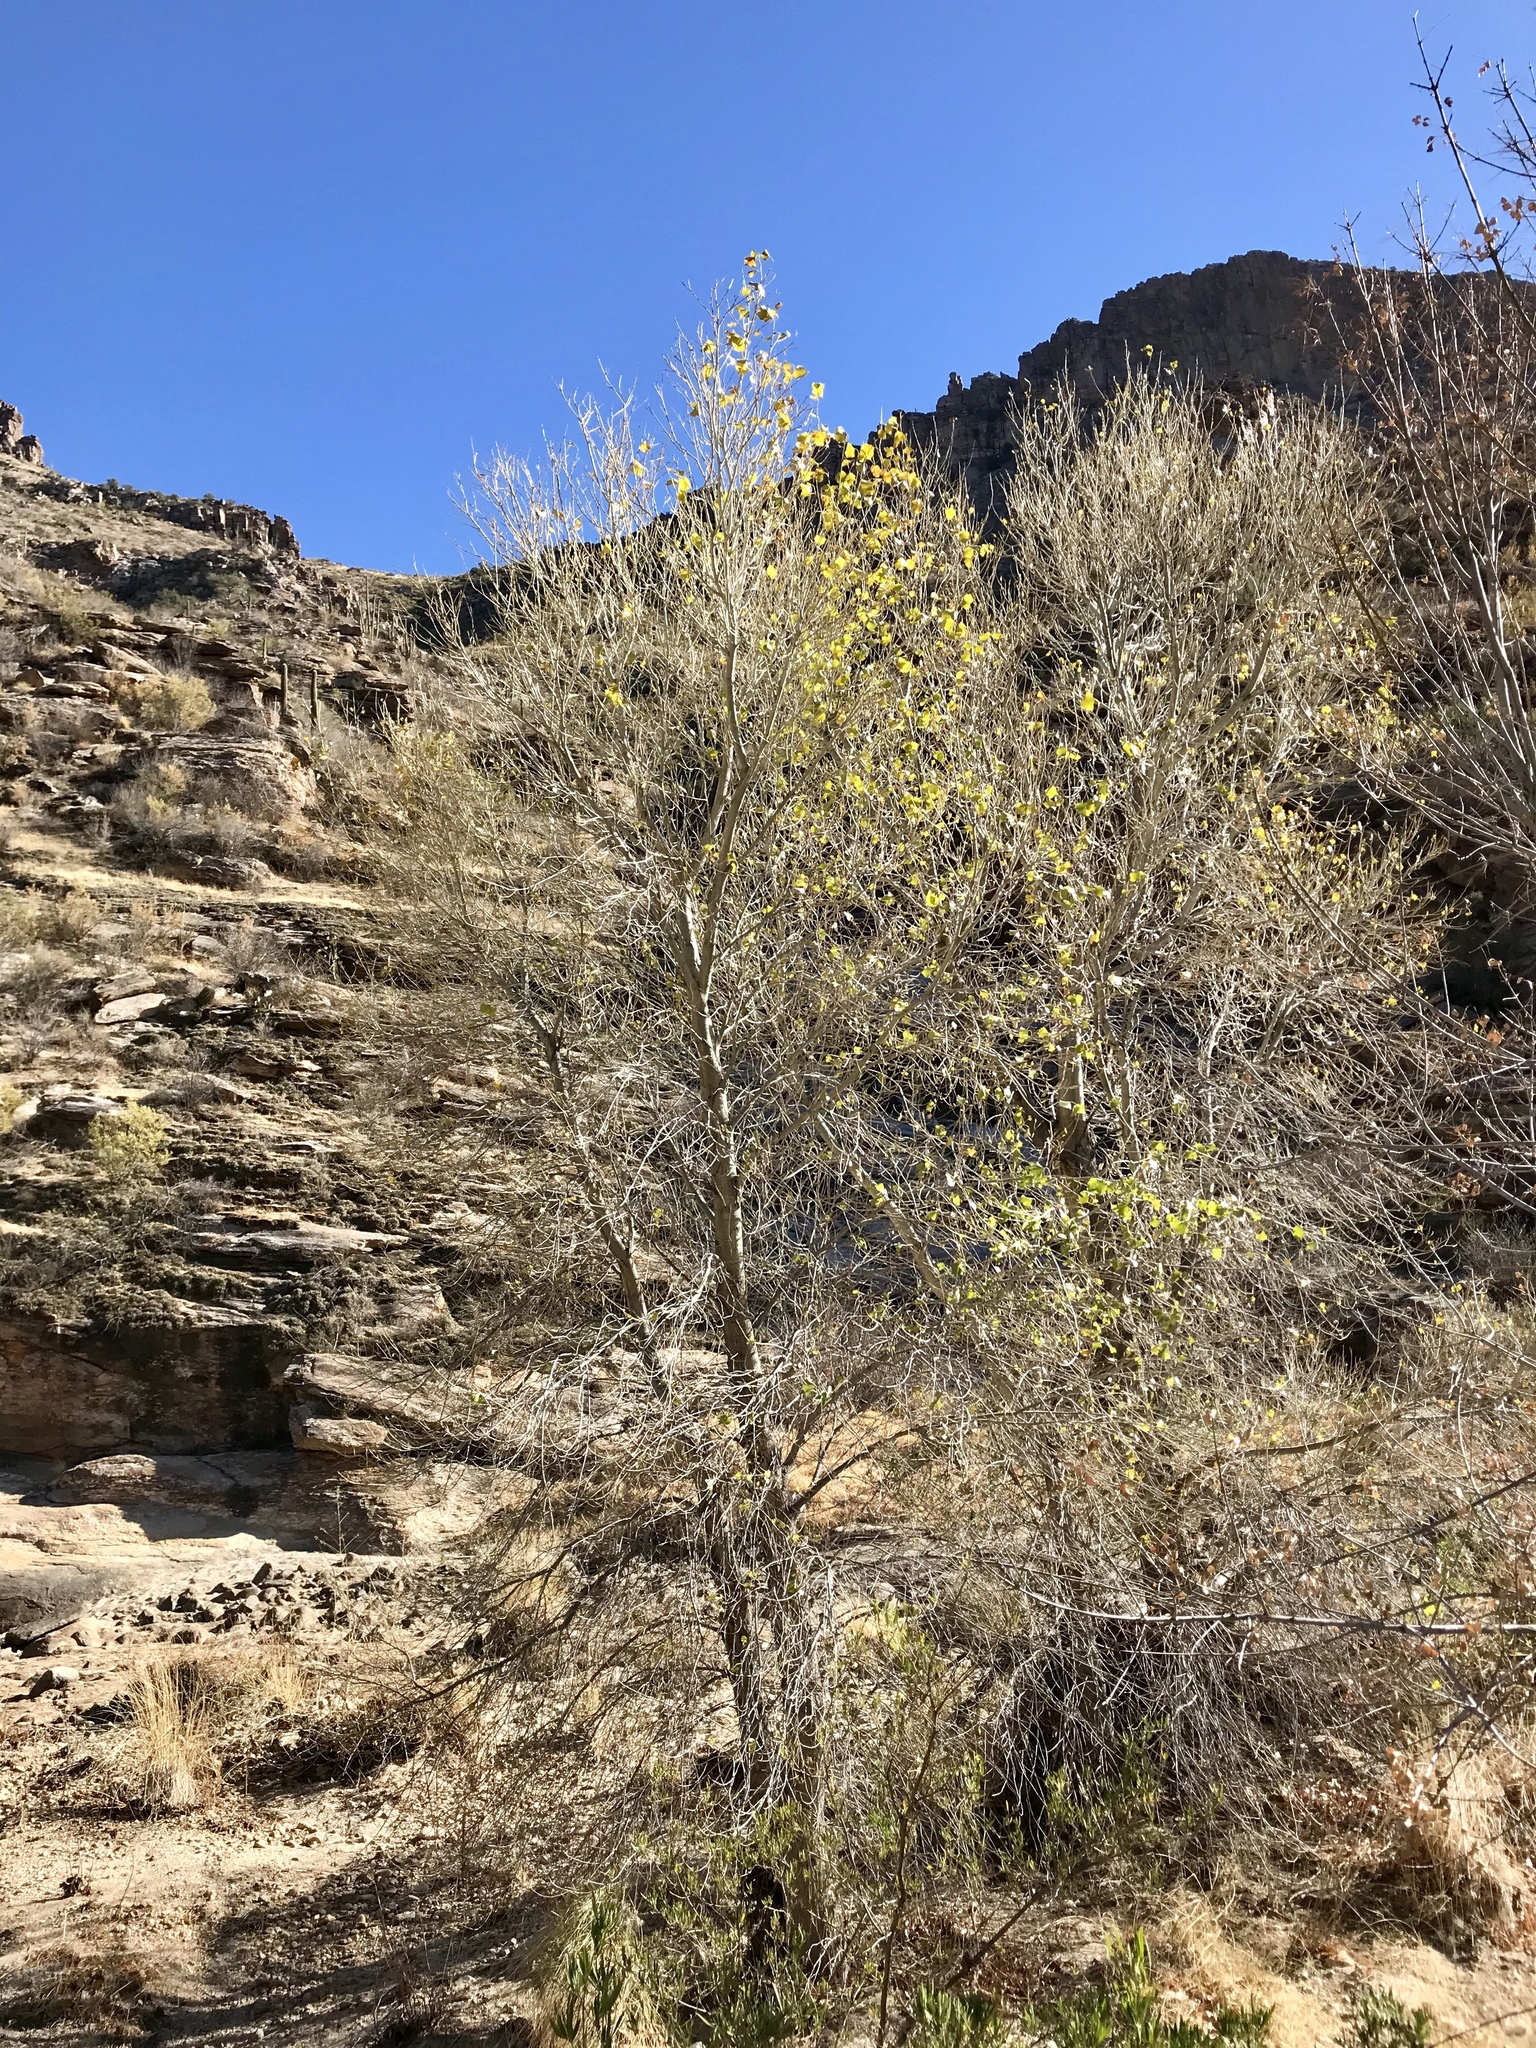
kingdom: Plantae
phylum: Tracheophyta
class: Magnoliopsida
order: Malpighiales
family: Salicaceae
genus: Populus
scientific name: Populus fremontii
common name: Fremont's cottonwood
